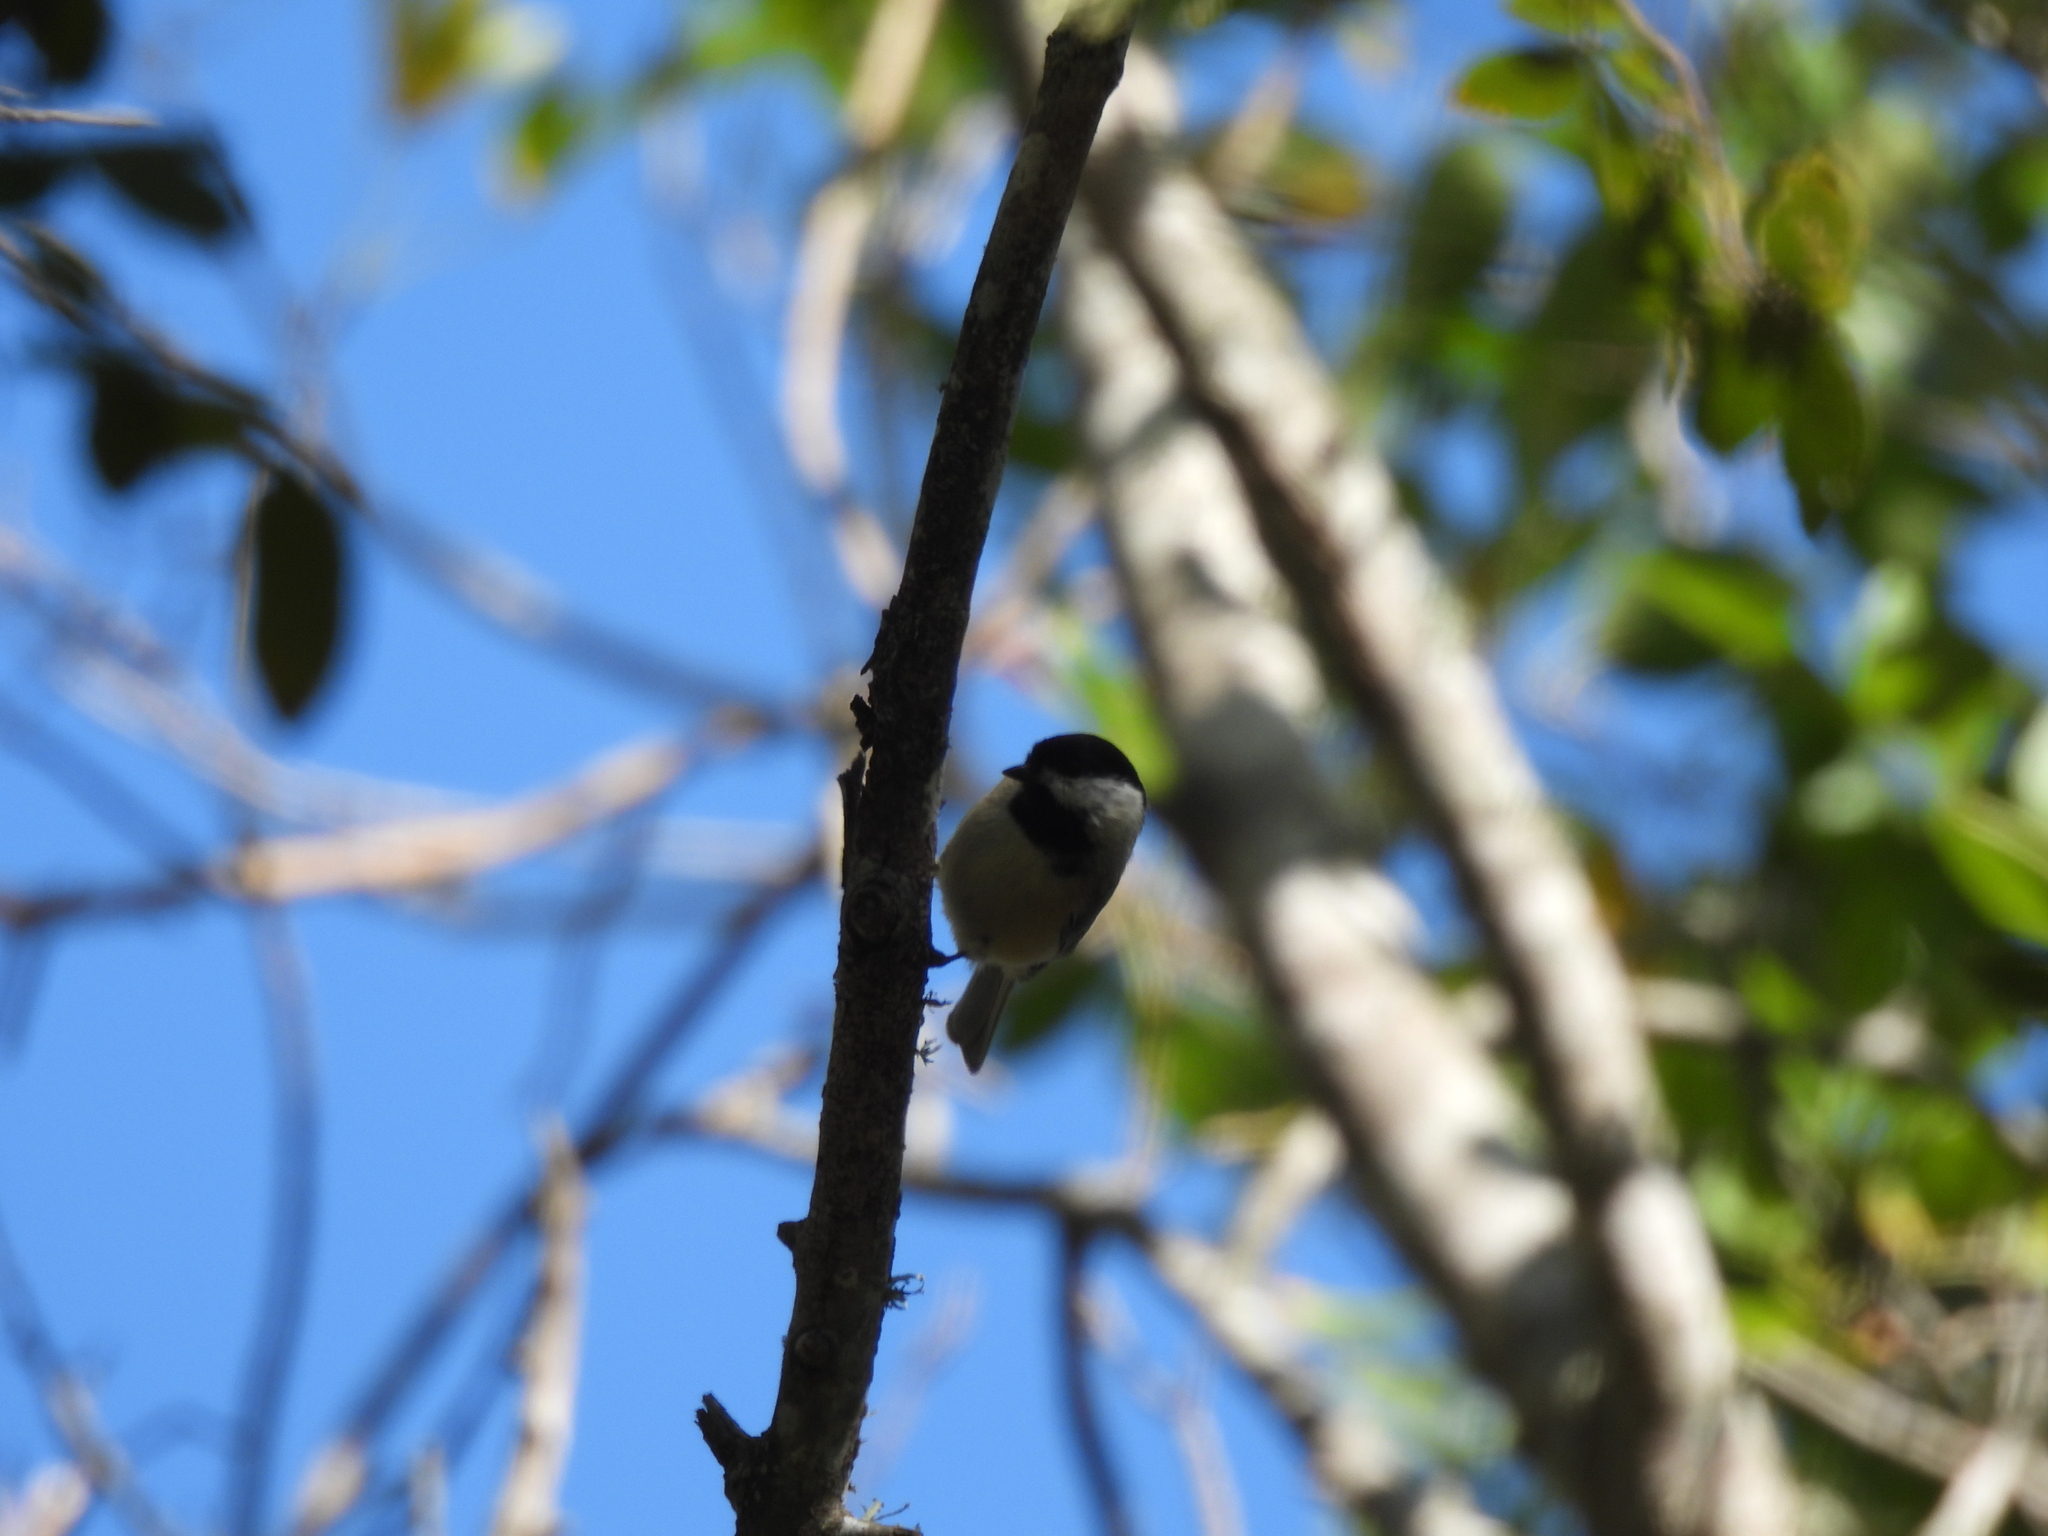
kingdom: Animalia
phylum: Chordata
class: Aves
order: Passeriformes
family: Paridae
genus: Poecile
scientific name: Poecile carolinensis
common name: Carolina chickadee
